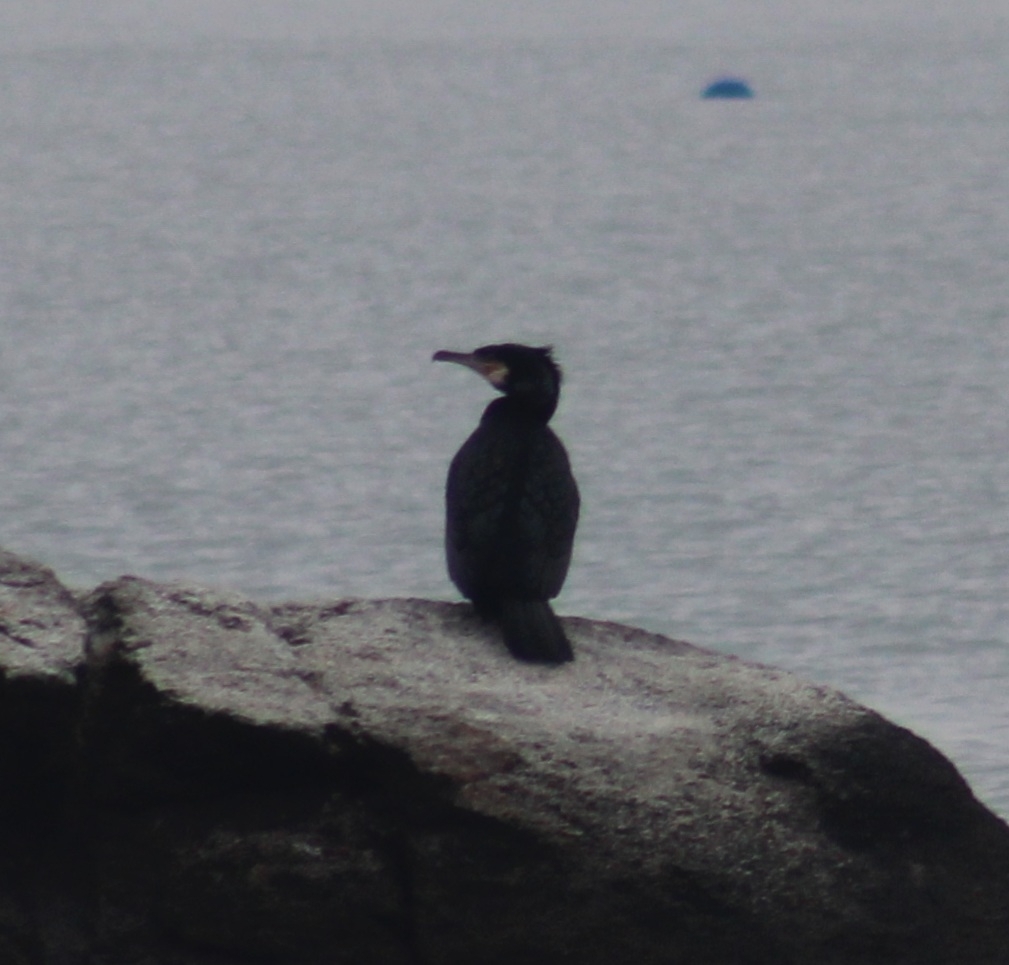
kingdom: Animalia
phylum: Chordata
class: Aves
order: Suliformes
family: Phalacrocoracidae
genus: Phalacrocorax
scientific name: Phalacrocorax carbo
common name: Great cormorant
